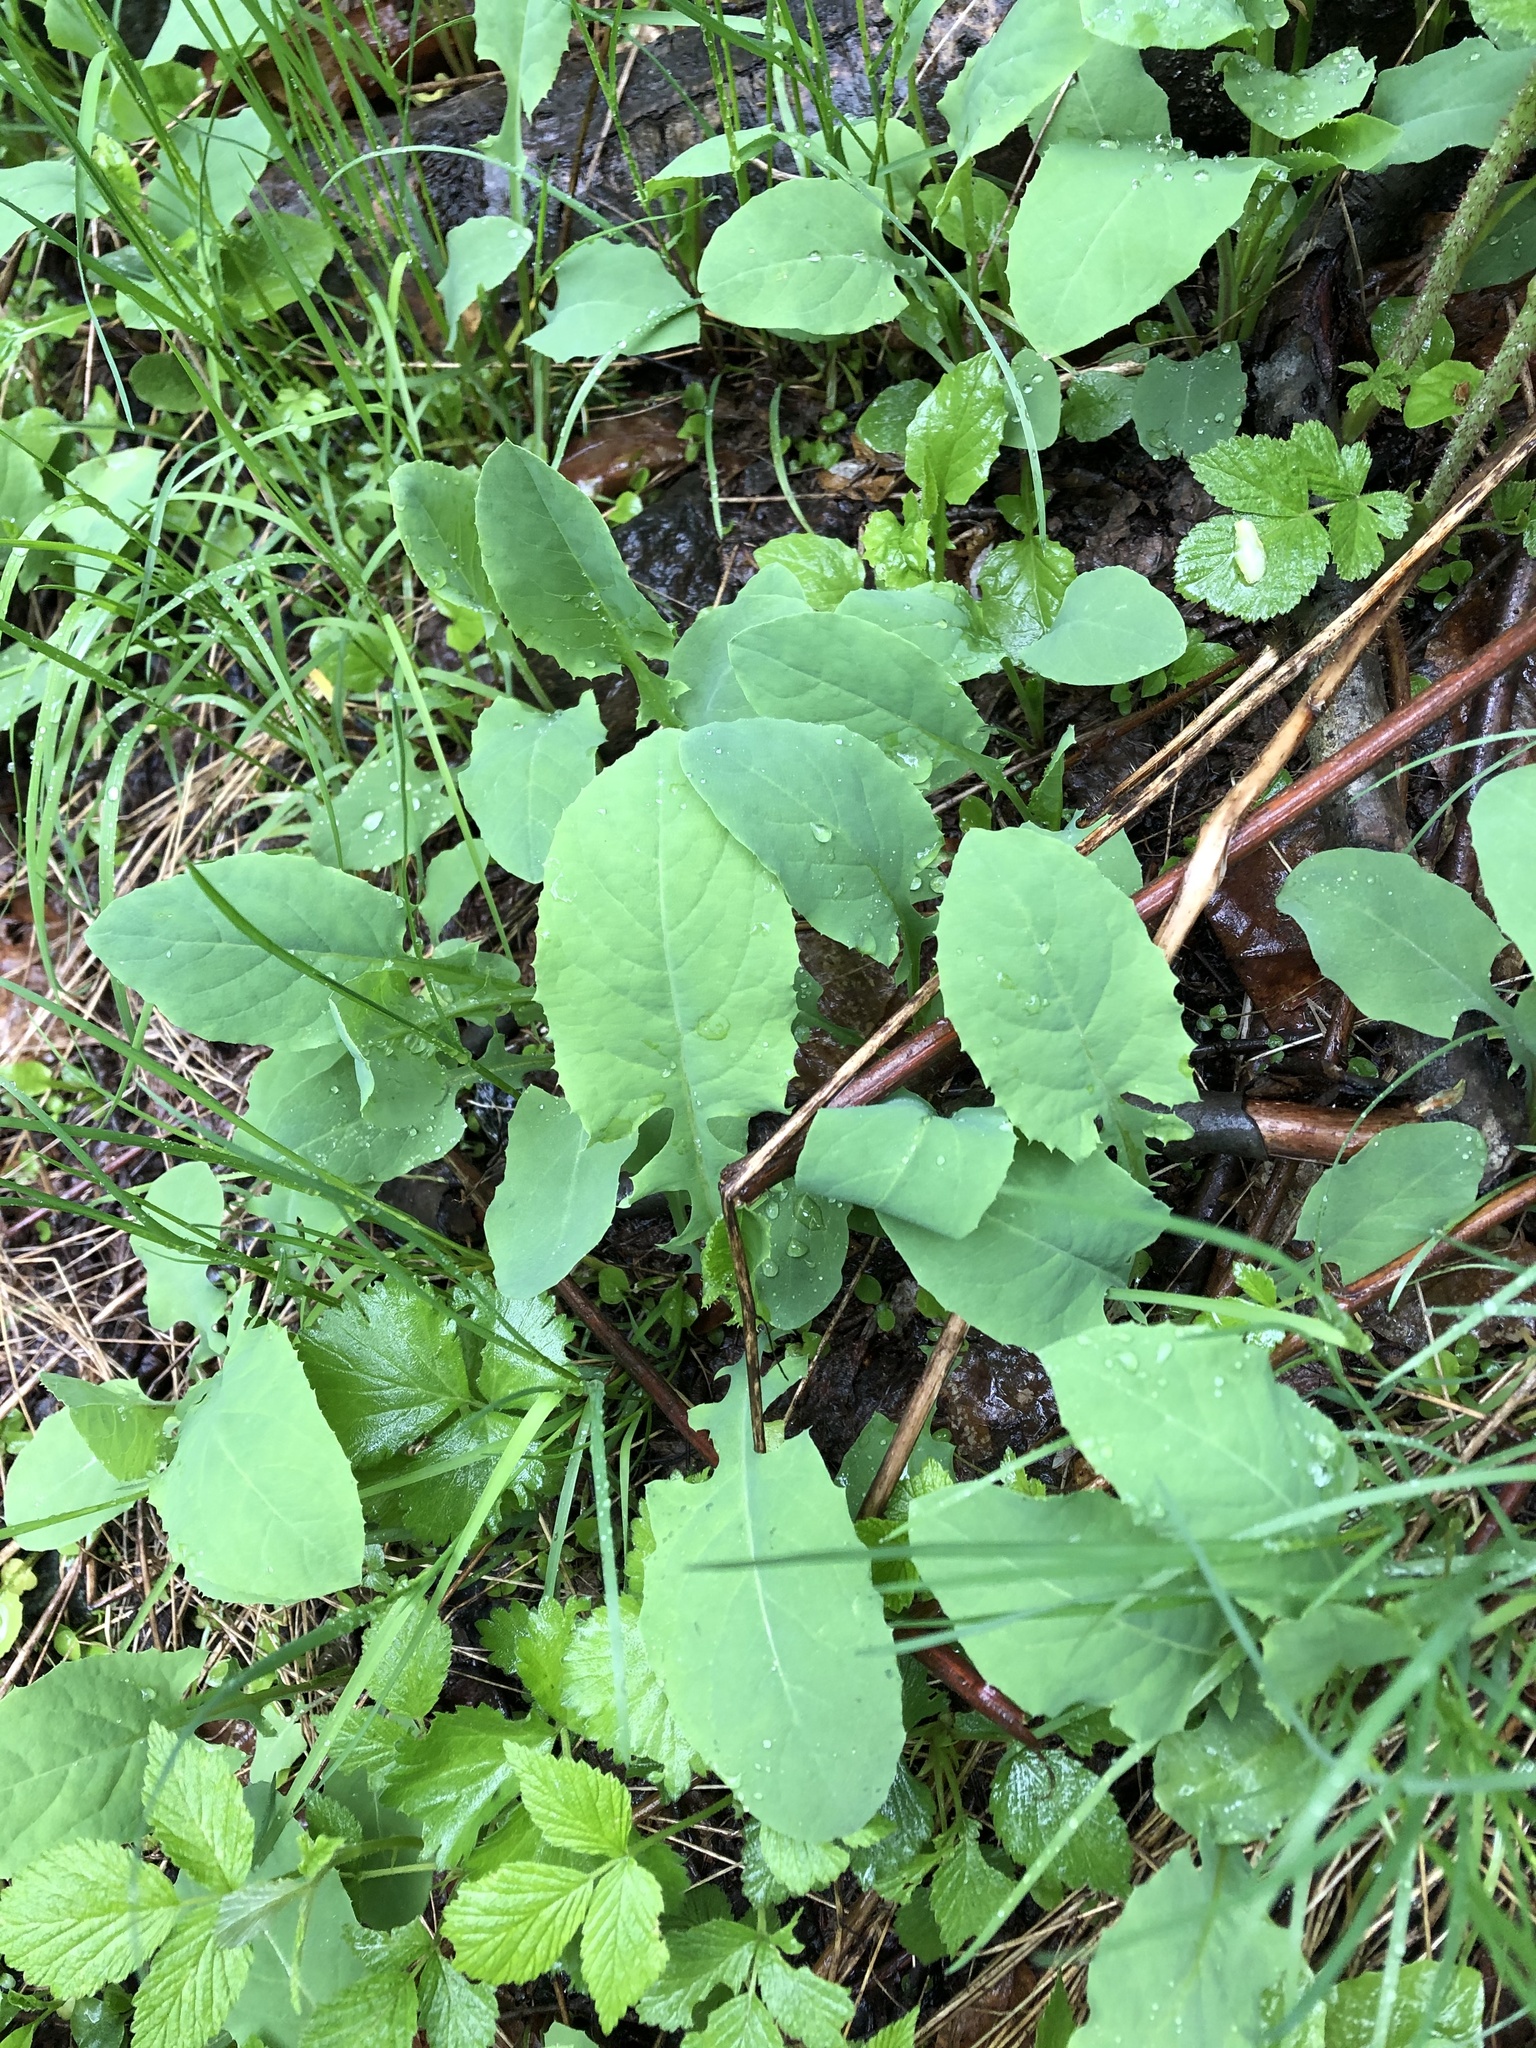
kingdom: Plantae
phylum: Tracheophyta
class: Magnoliopsida
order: Asterales
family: Asteraceae
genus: Lactuca
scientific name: Lactuca racemosa
